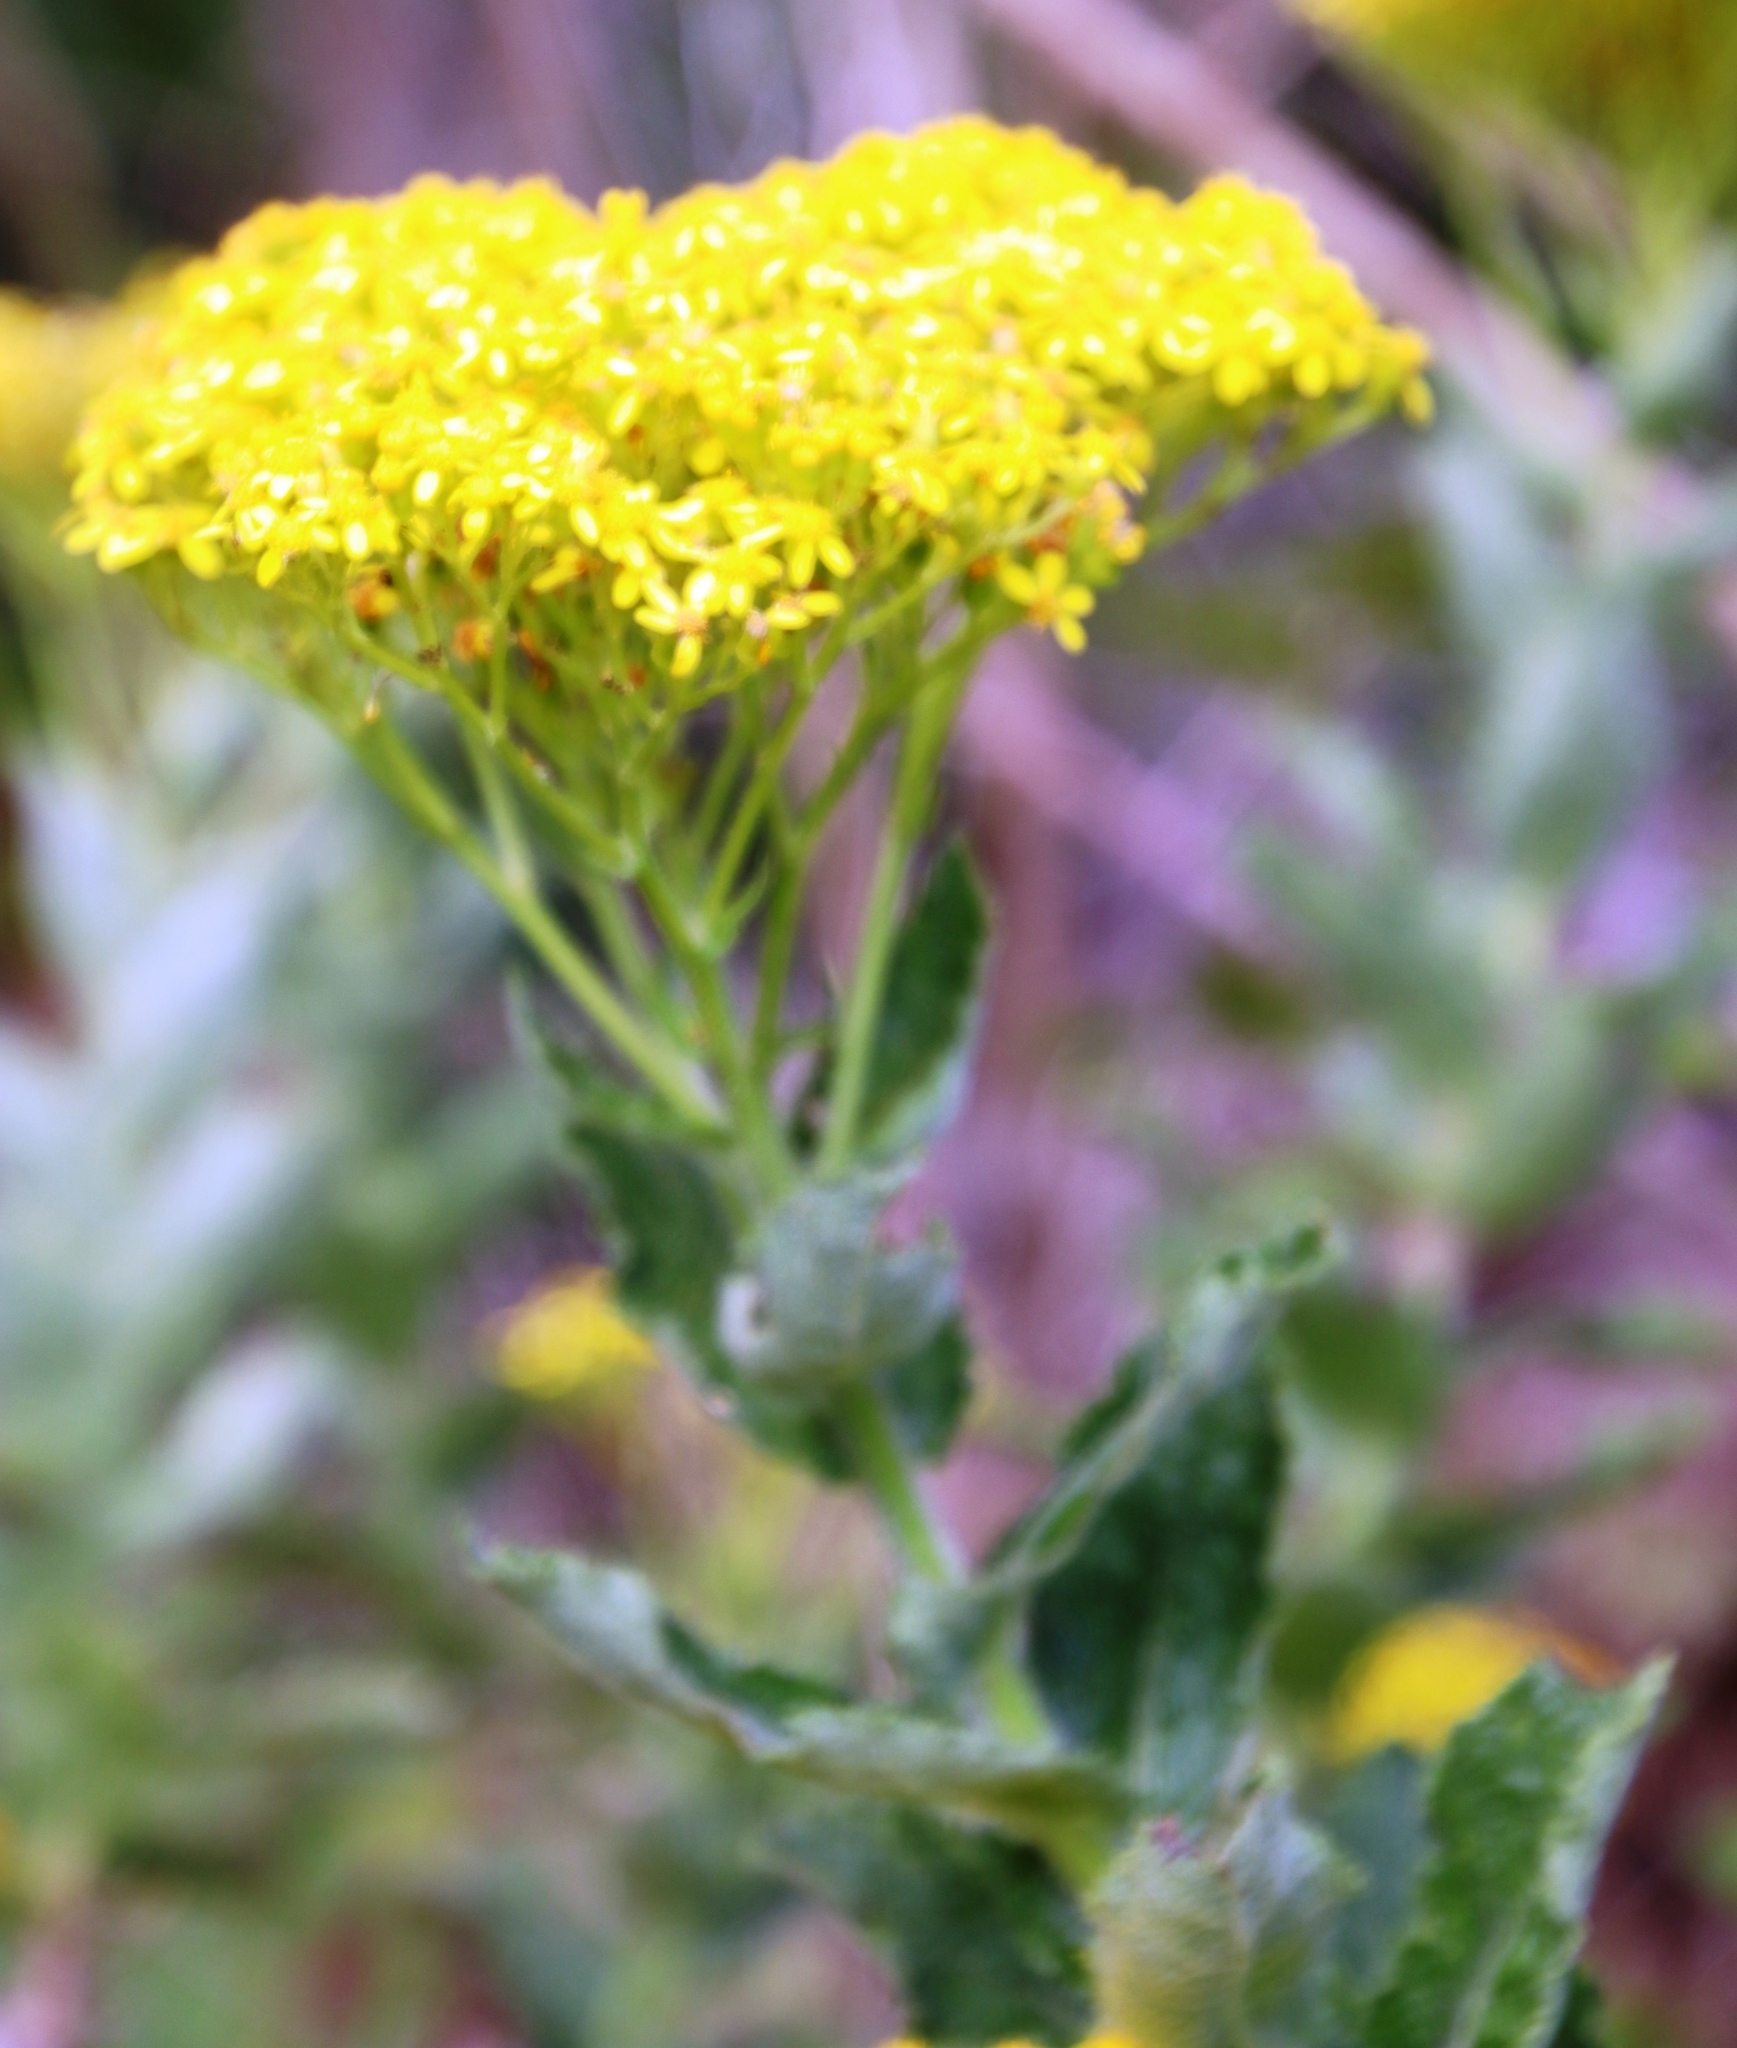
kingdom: Plantae
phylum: Tracheophyta
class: Magnoliopsida
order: Asterales
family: Asteraceae
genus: Senecio
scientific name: Senecio rigidus
